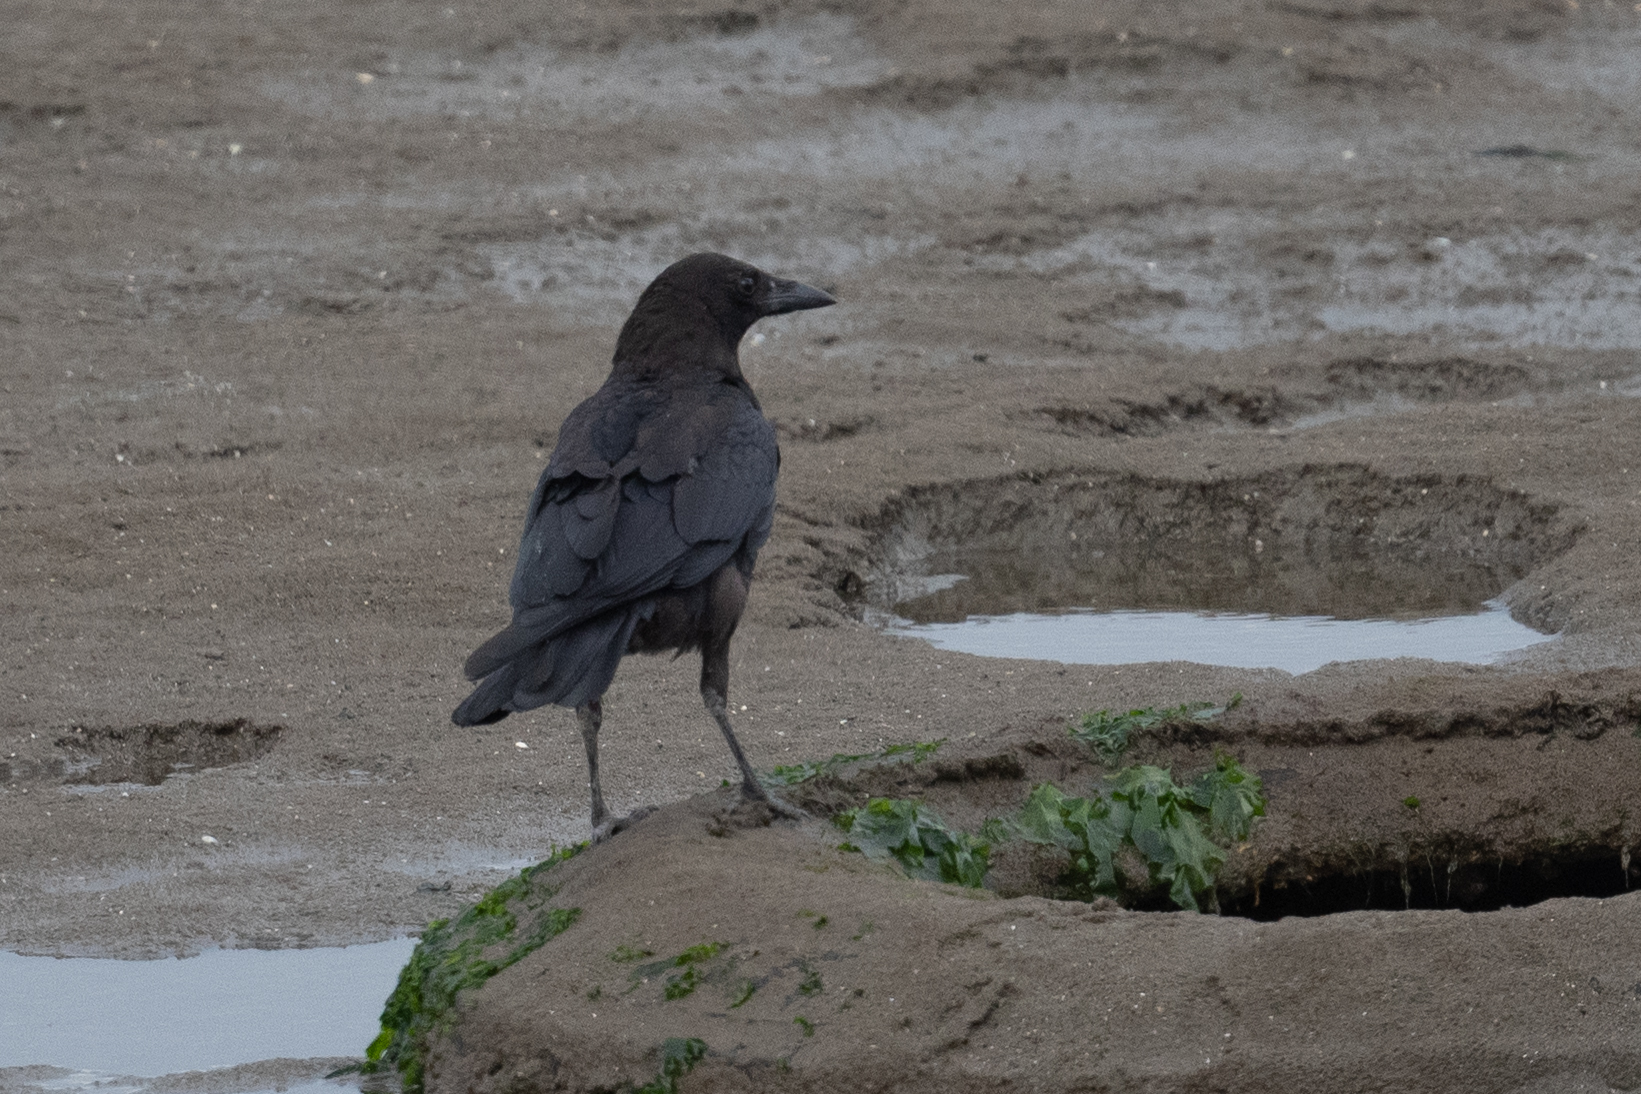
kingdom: Animalia
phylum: Chordata
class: Aves
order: Passeriformes
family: Corvidae
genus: Corvus
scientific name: Corvus brachyrhynchos
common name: American crow
